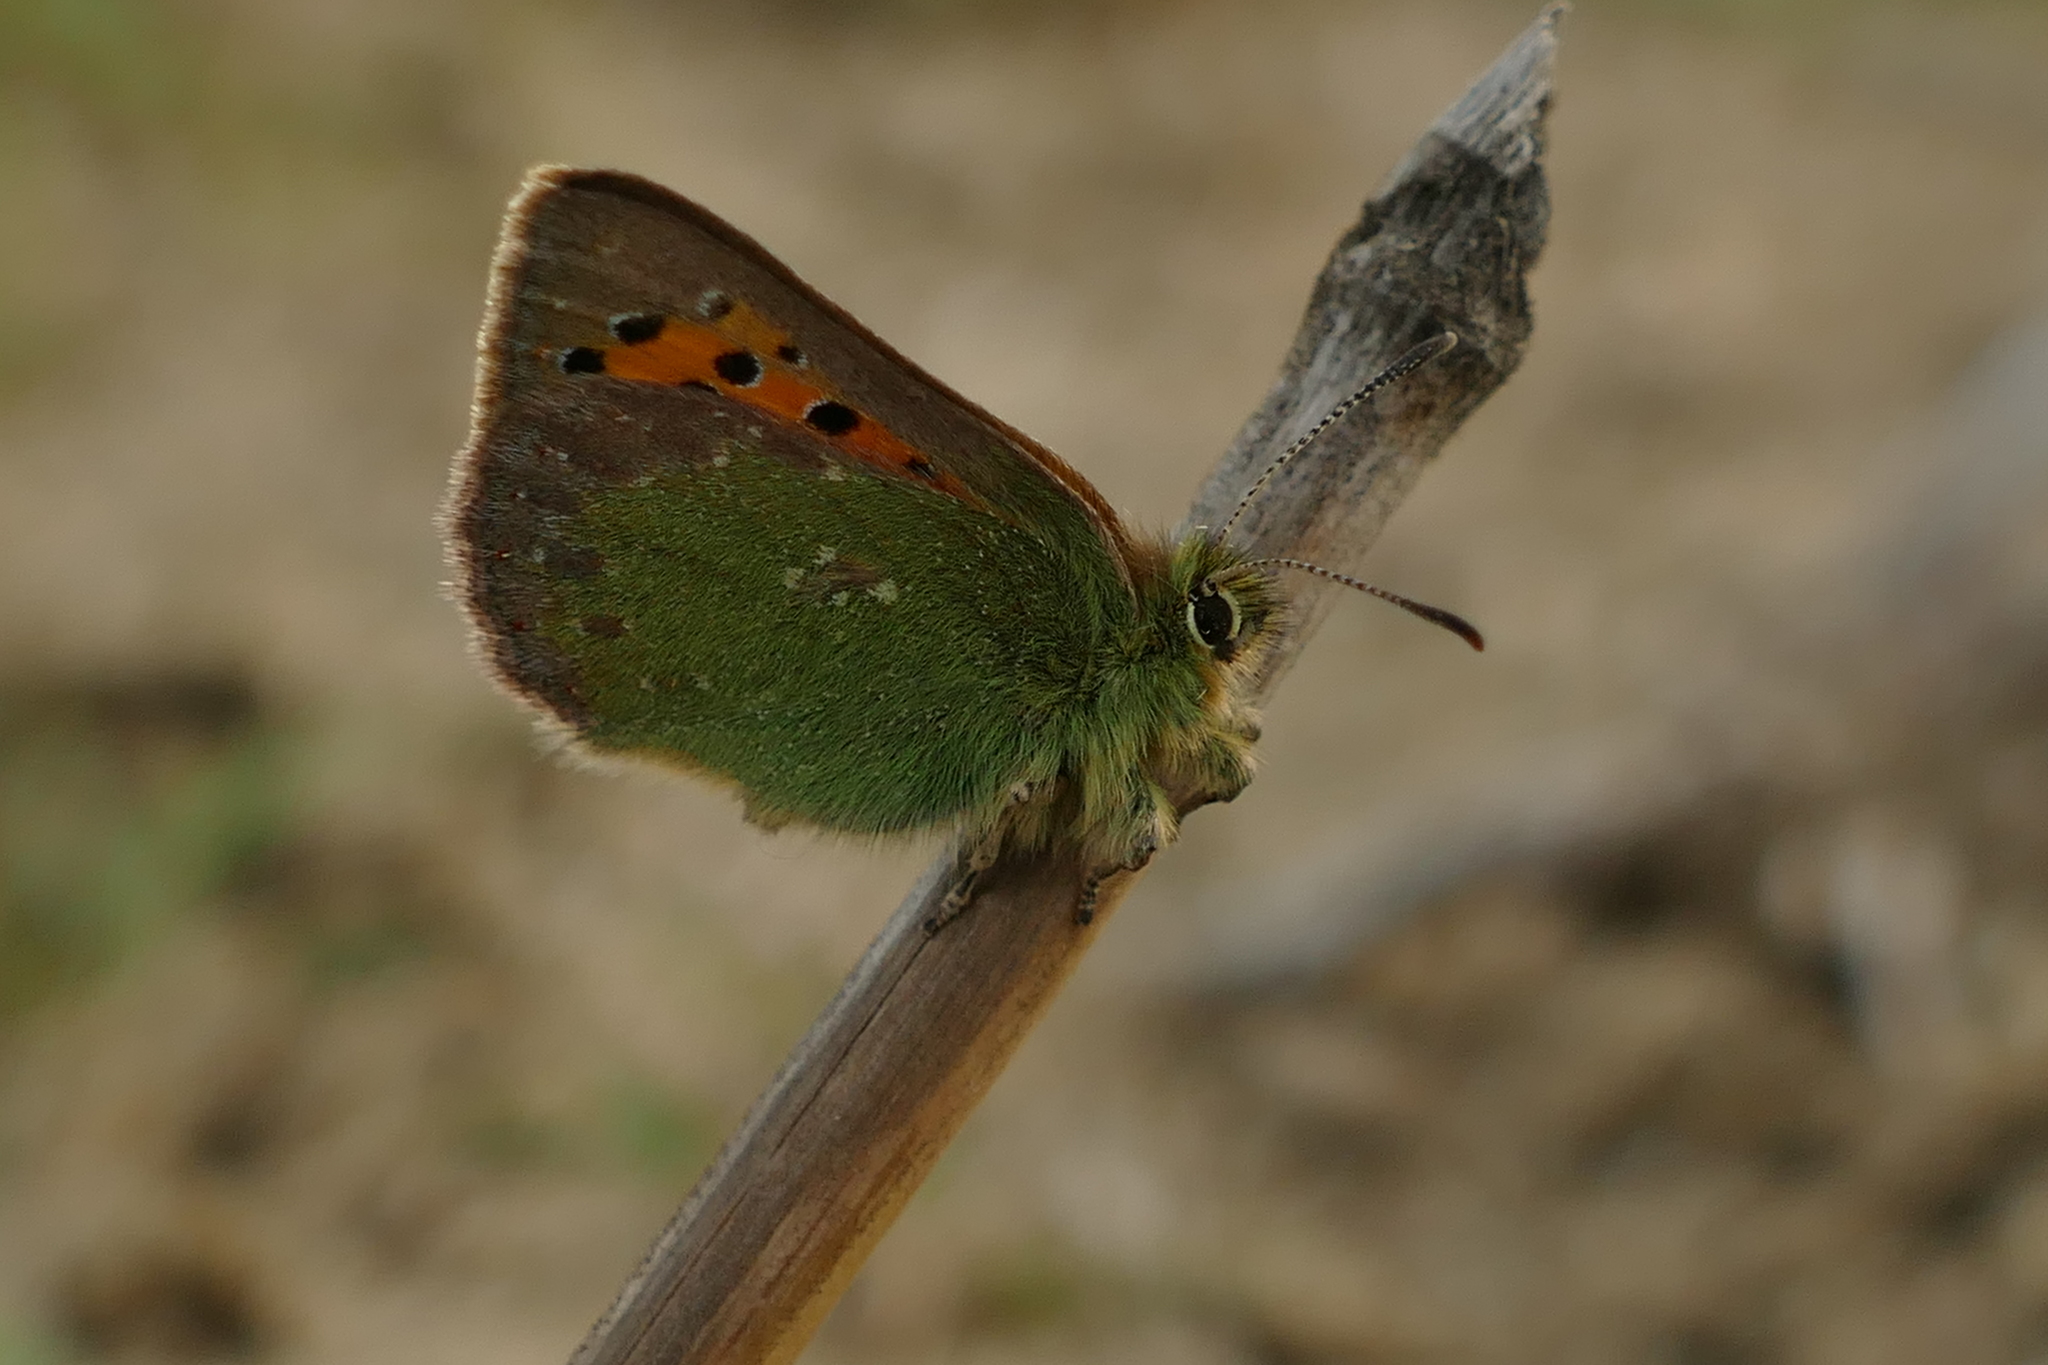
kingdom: Animalia
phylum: Arthropoda
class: Insecta
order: Lepidoptera
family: Lycaenidae
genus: Tomares
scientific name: Tomares ballus
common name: Provence hairstreak
